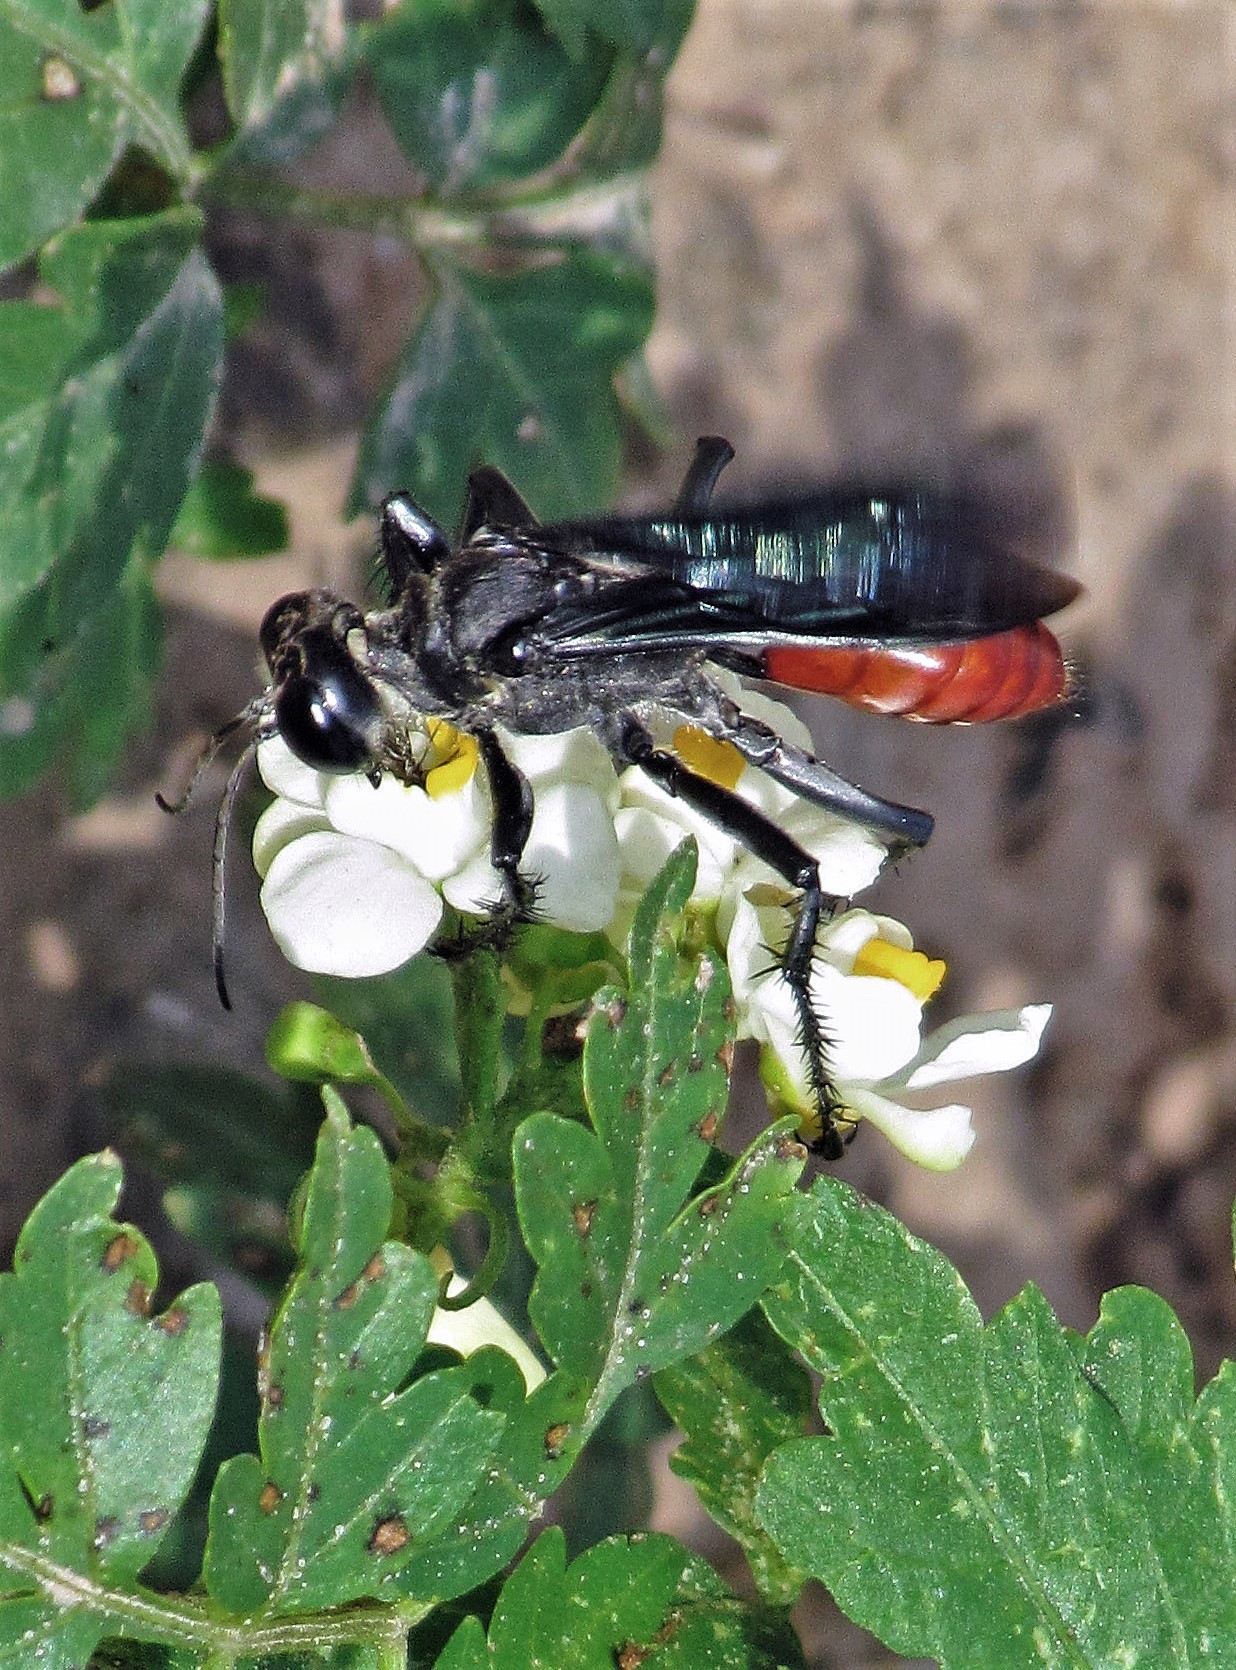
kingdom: Animalia
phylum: Arthropoda
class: Insecta
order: Hymenoptera
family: Sphecidae
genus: Prionyx
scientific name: Prionyx fervens
